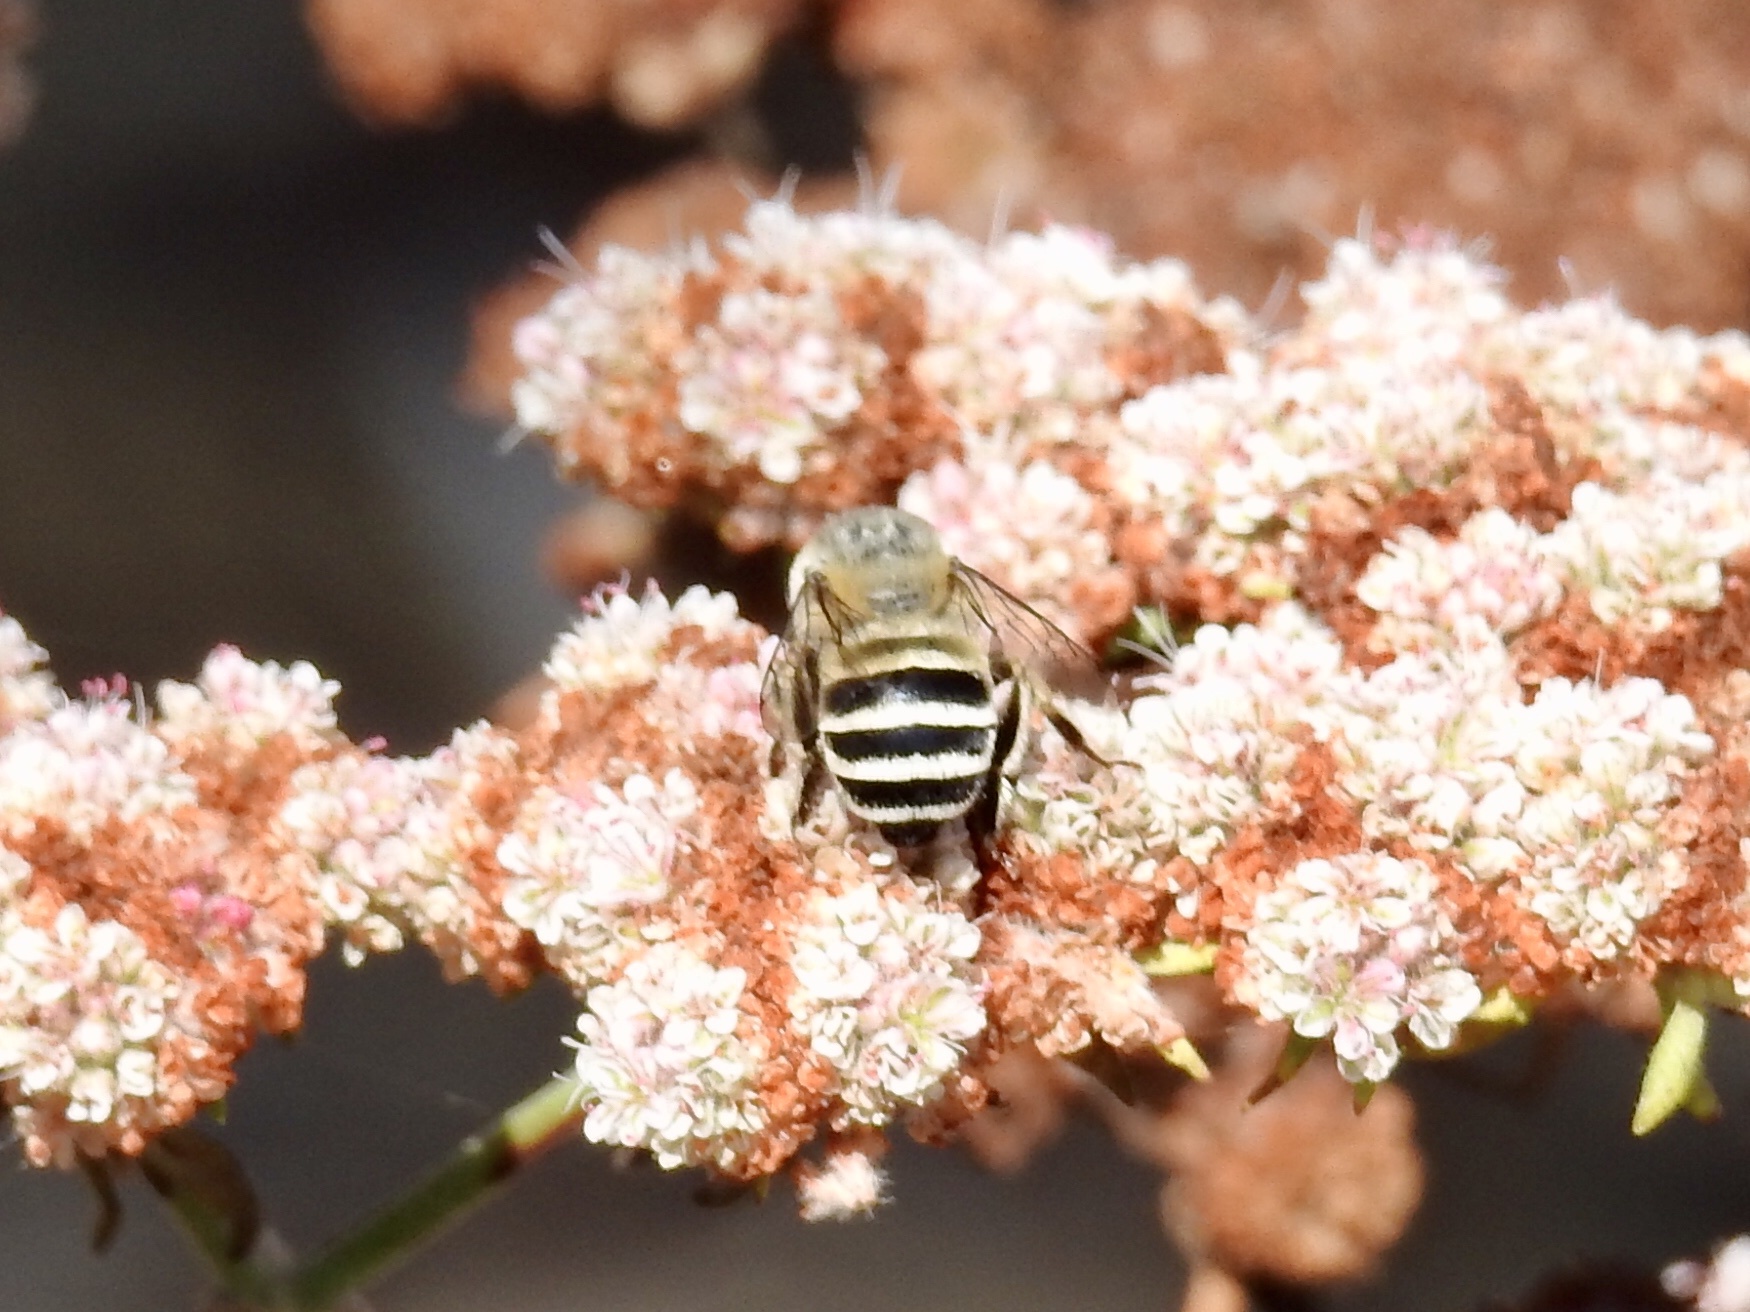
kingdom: Animalia
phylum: Arthropoda
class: Insecta
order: Hymenoptera
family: Apidae
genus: Anthophora
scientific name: Anthophora urbana
